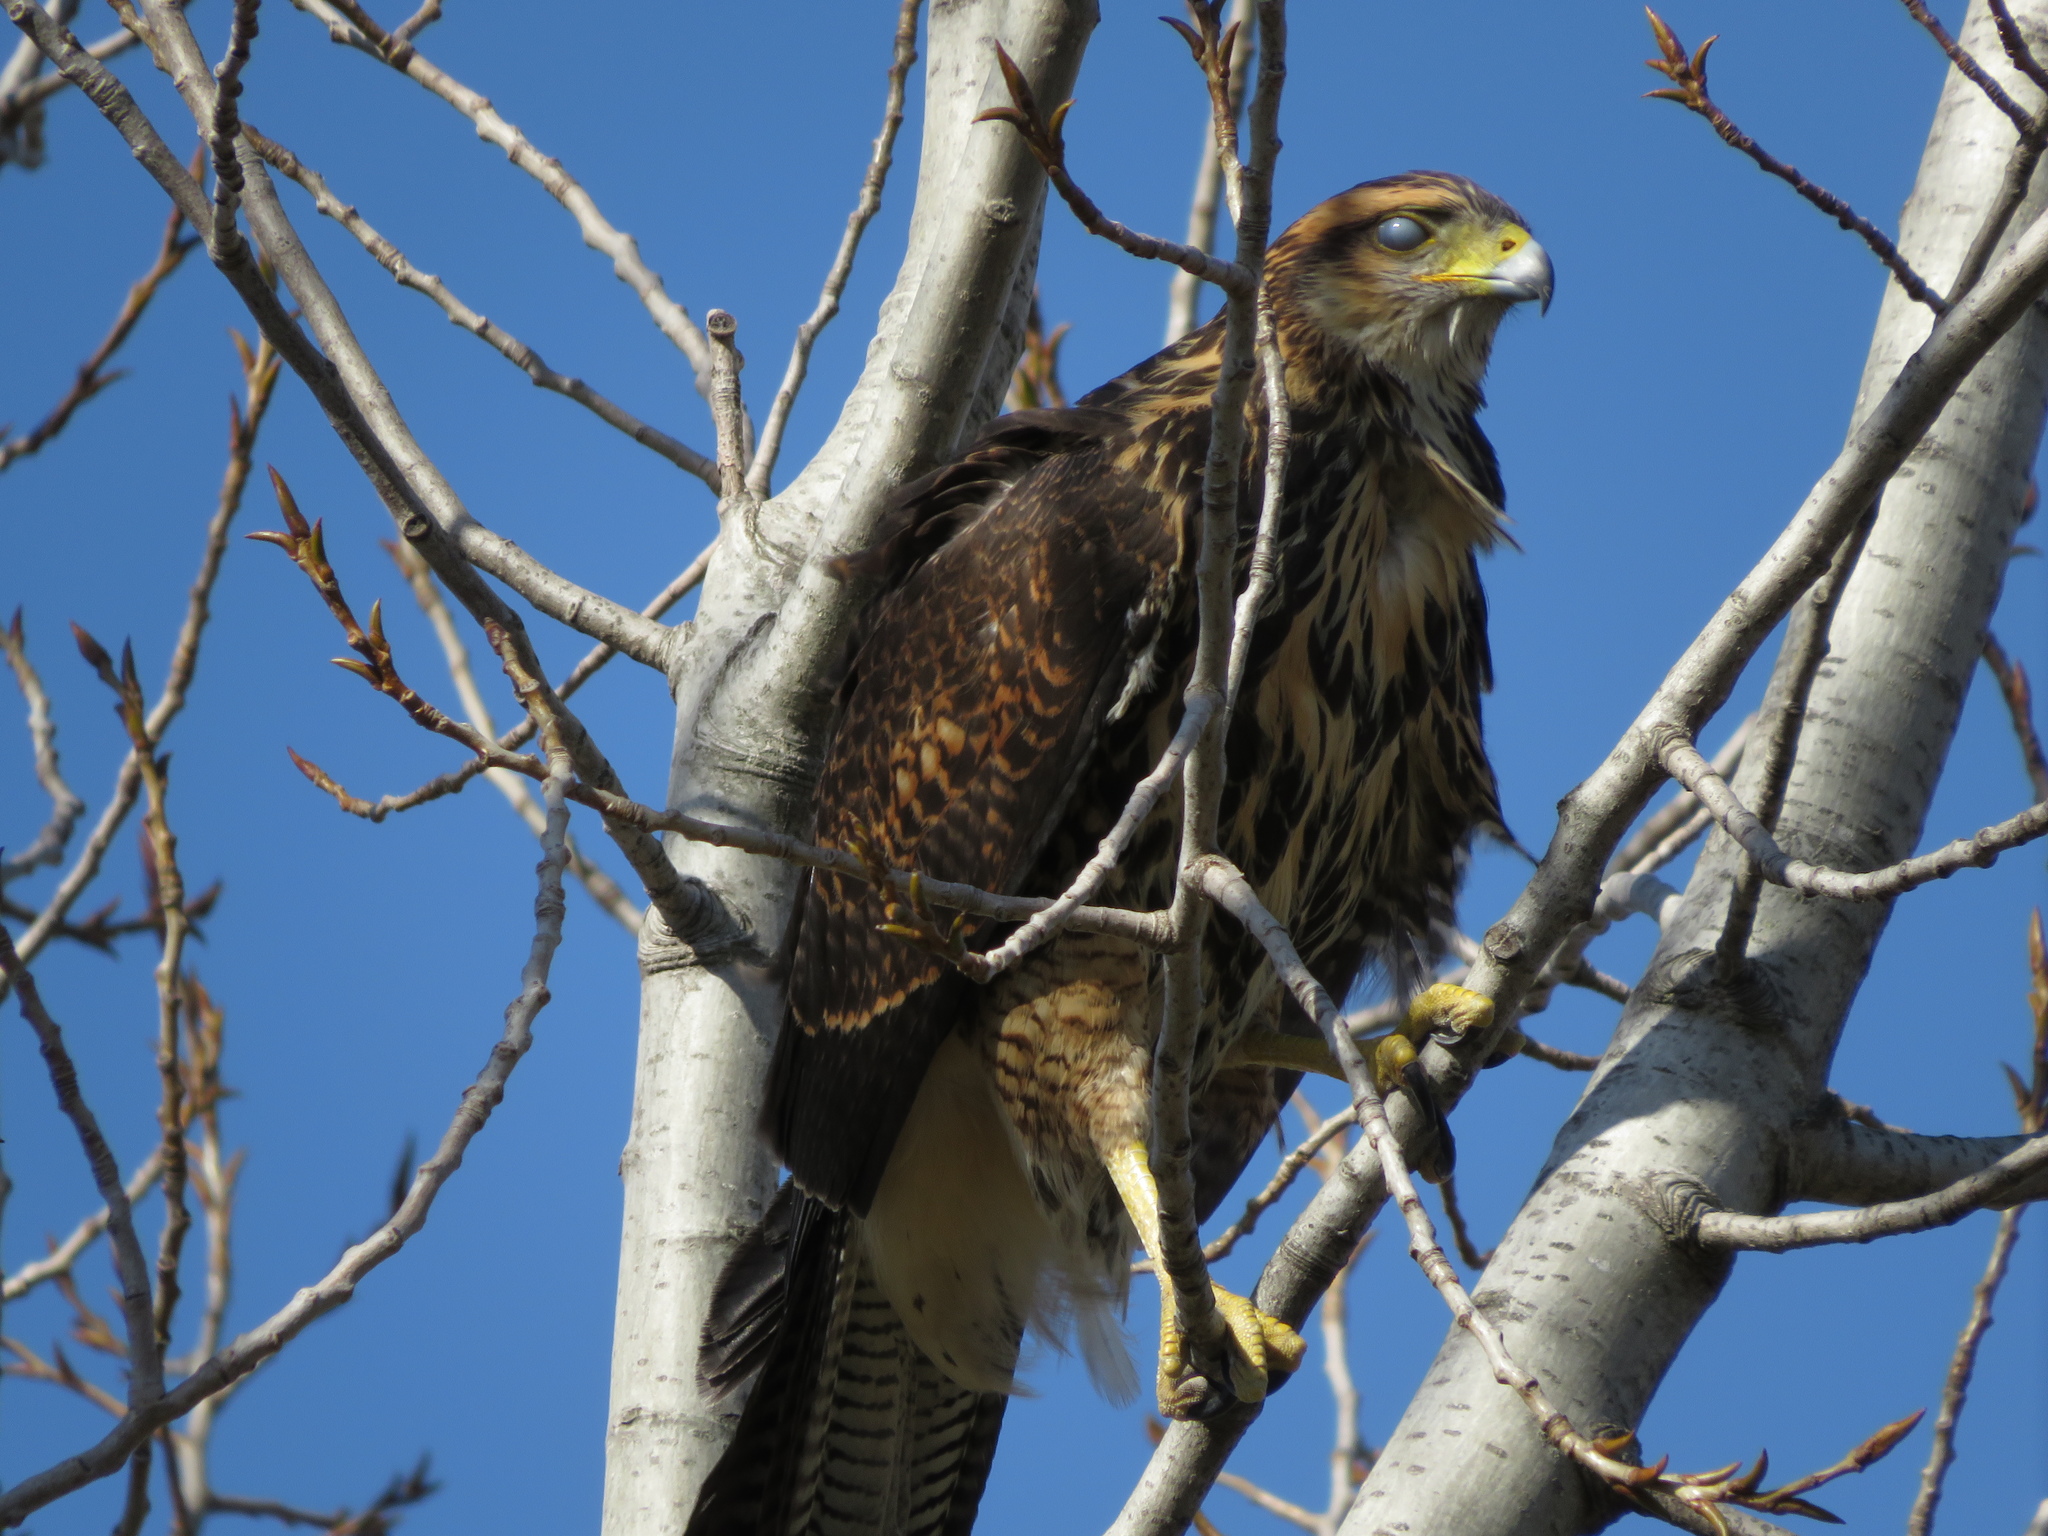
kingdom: Animalia
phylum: Chordata
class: Aves
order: Accipitriformes
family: Accipitridae
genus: Parabuteo
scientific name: Parabuteo unicinctus
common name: Harris's hawk
